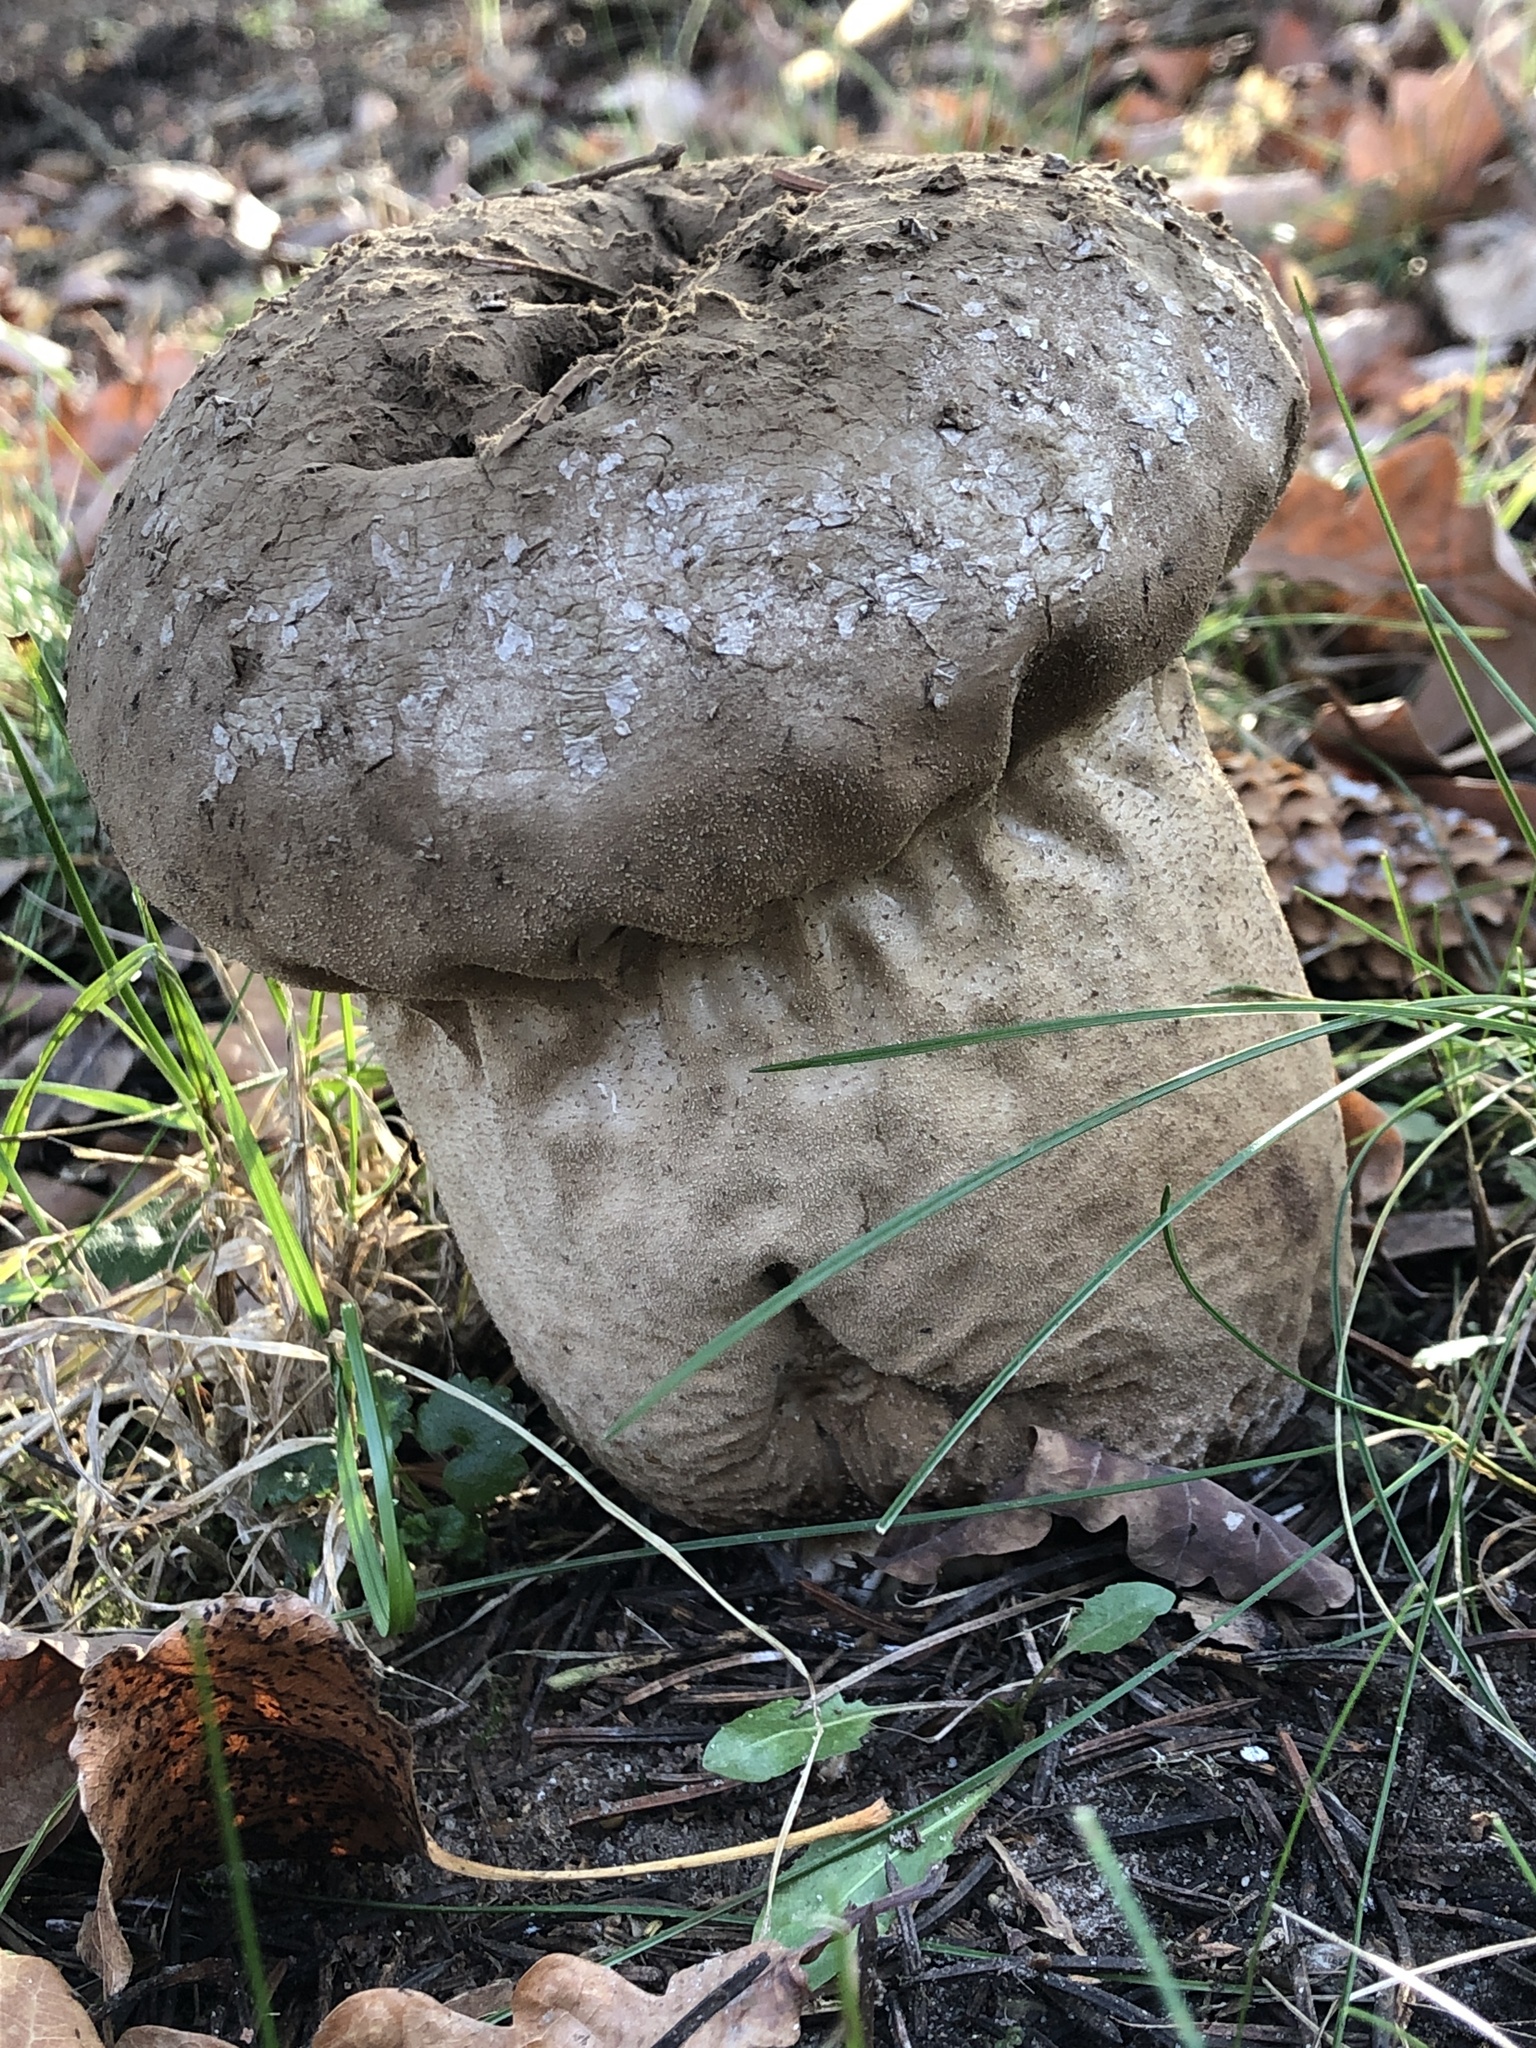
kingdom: Fungi
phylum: Basidiomycota
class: Agaricomycetes
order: Agaricales
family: Lycoperdaceae
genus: Lycoperdon
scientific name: Lycoperdon excipuliforme
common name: Pestle puffball
